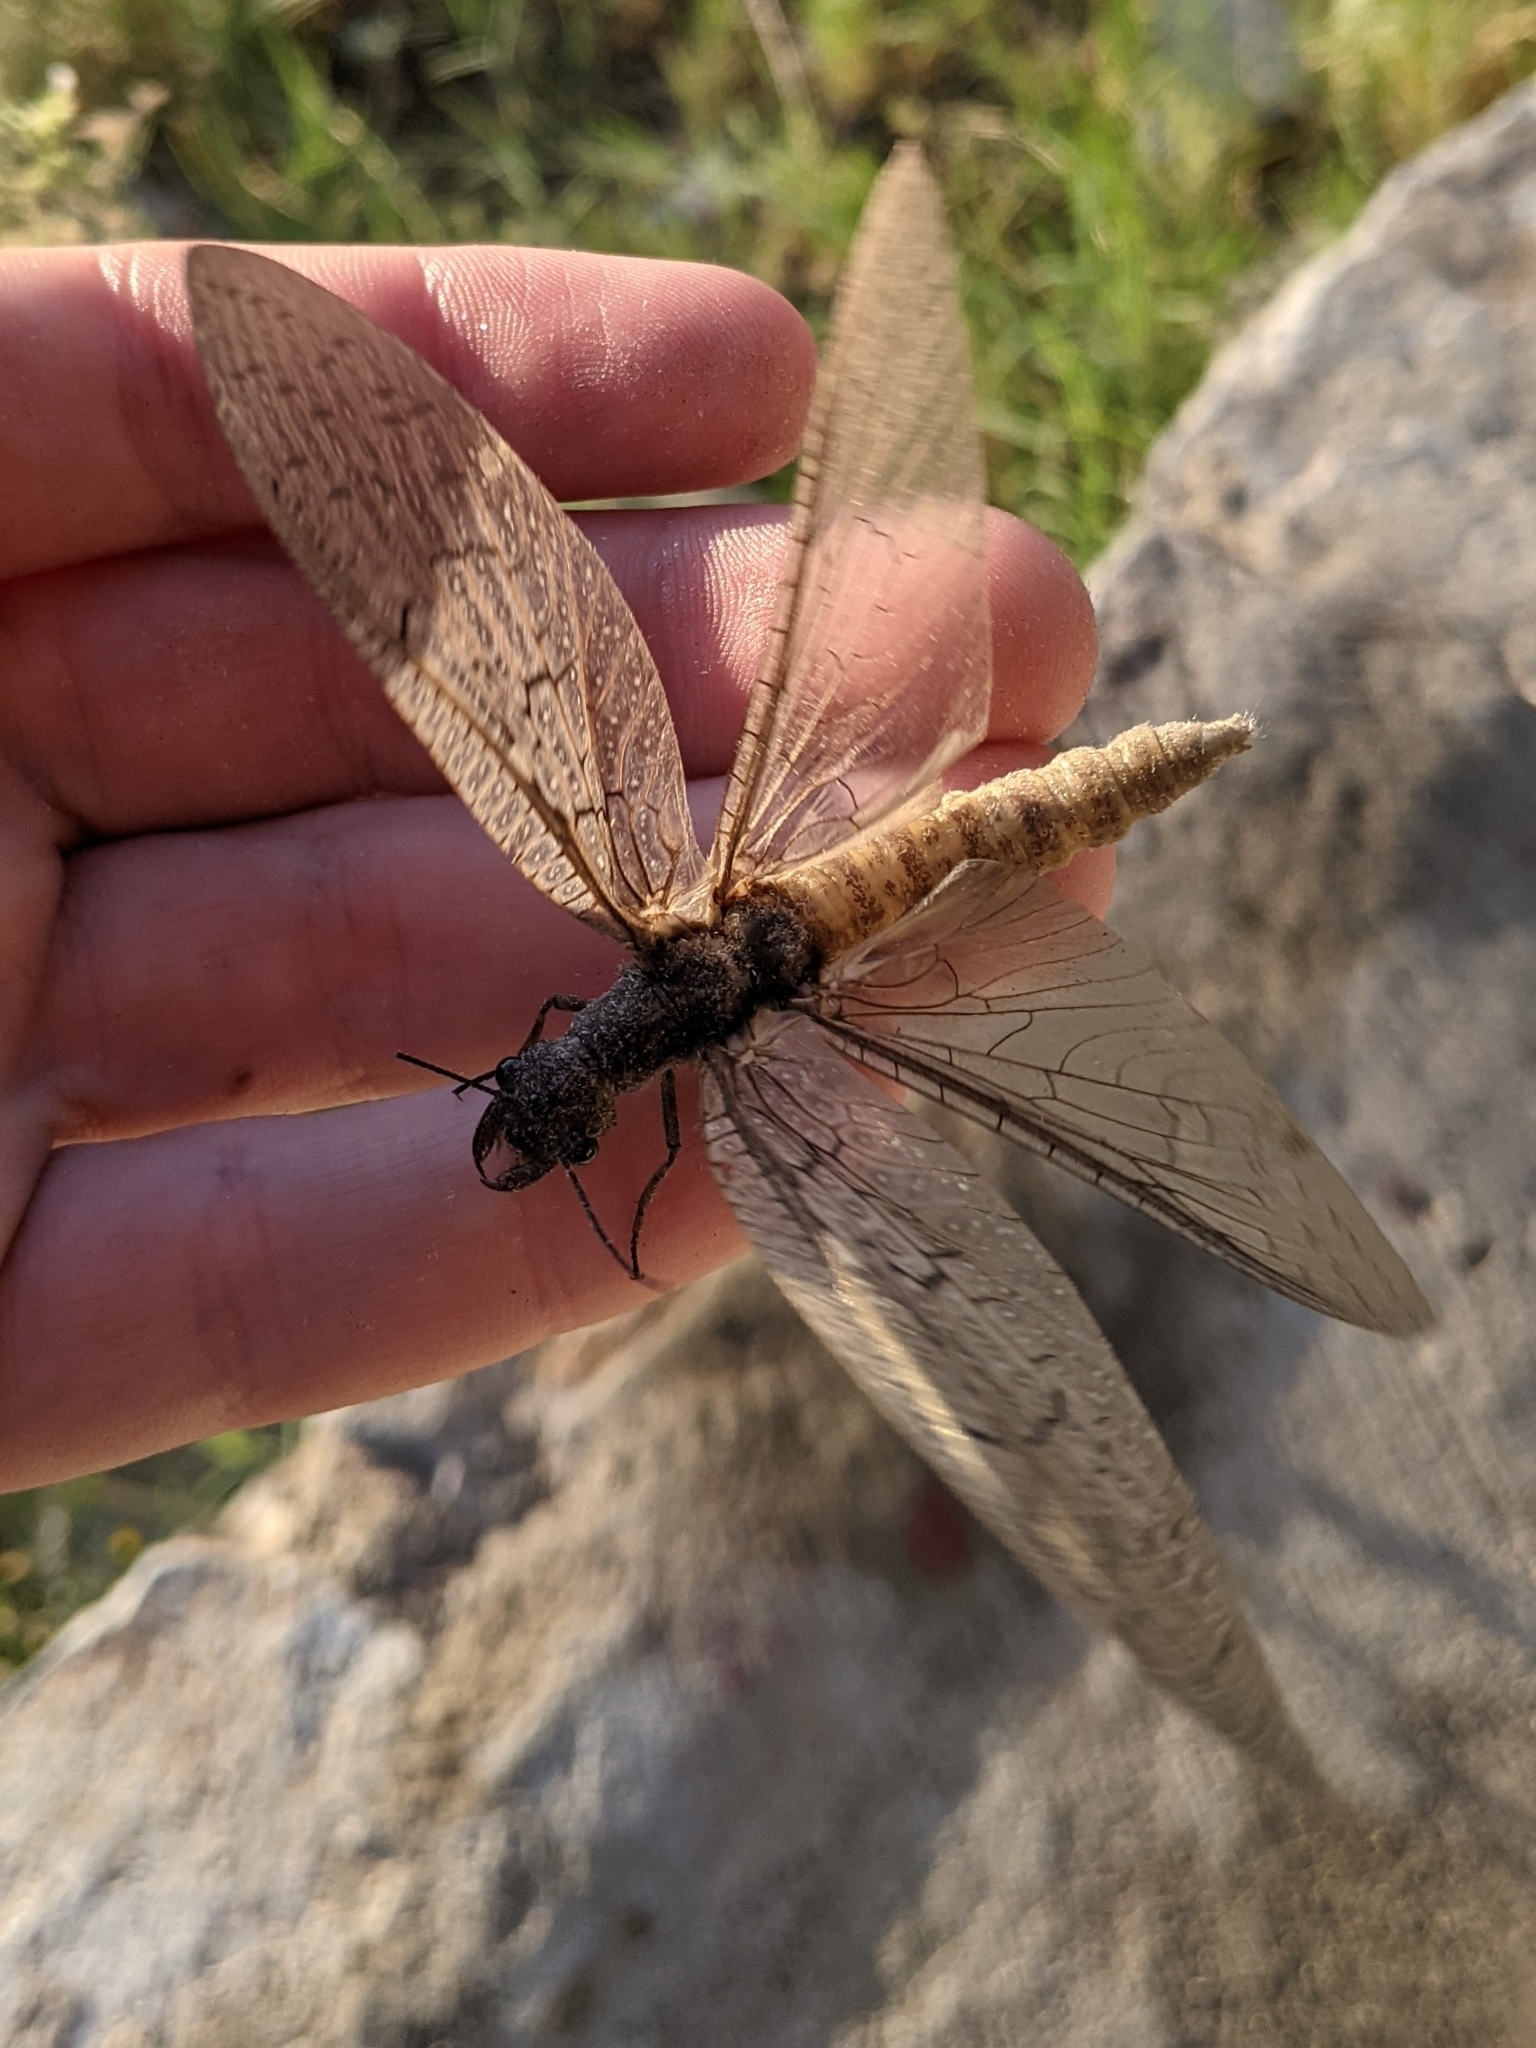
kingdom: Animalia
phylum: Arthropoda
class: Insecta
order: Megaloptera
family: Corydalidae
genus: Corydalus
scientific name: Corydalus texanus
